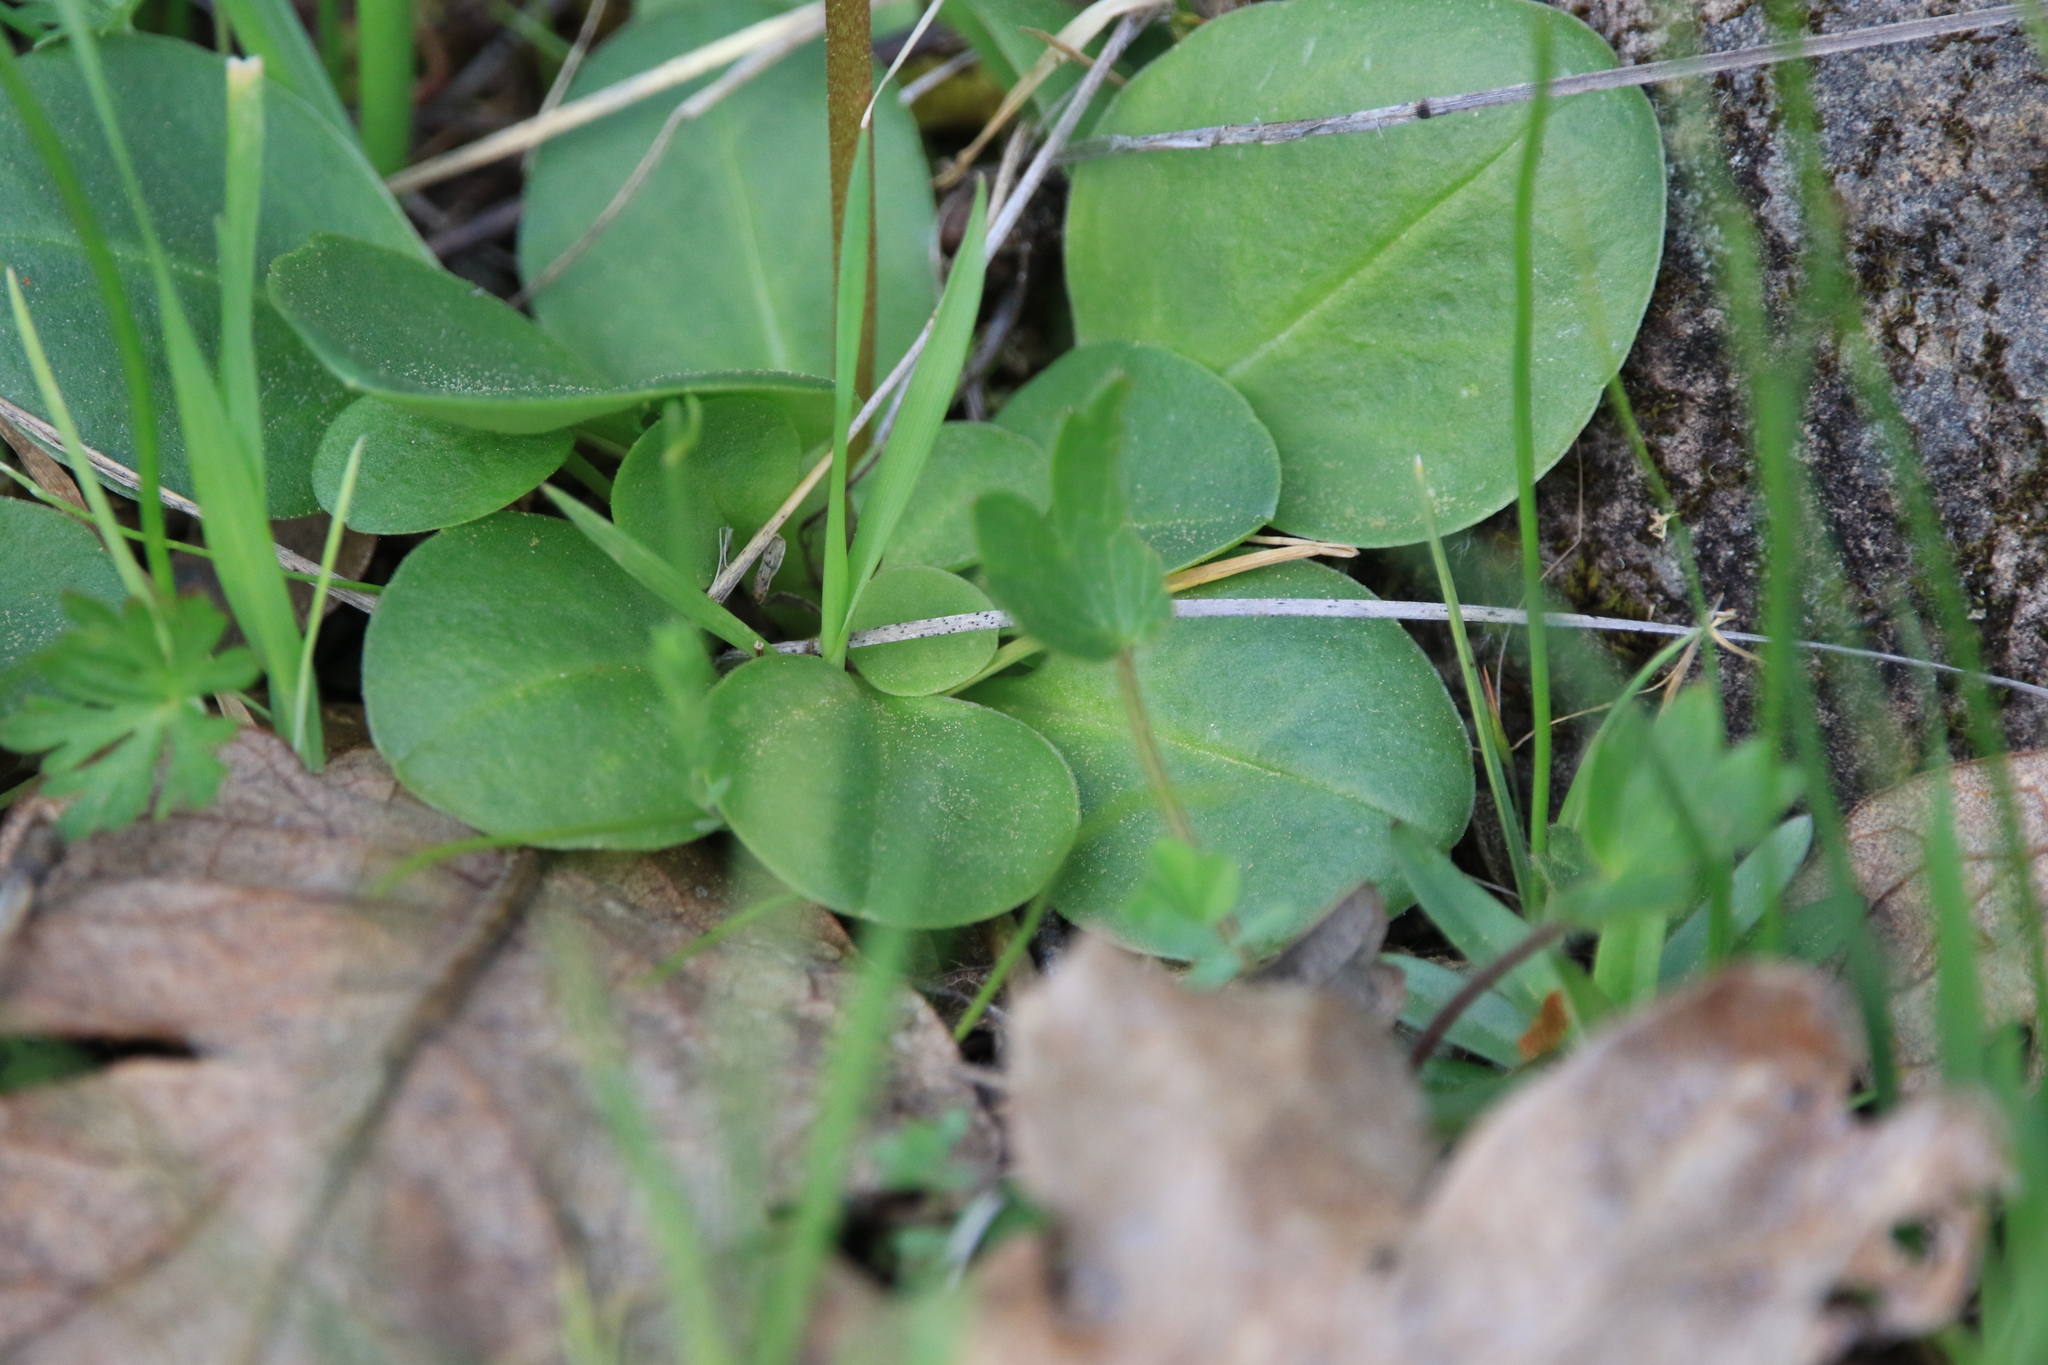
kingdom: Plantae
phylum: Tracheophyta
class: Magnoliopsida
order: Ericales
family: Primulaceae
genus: Dodecatheon
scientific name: Dodecatheon hendersonii
